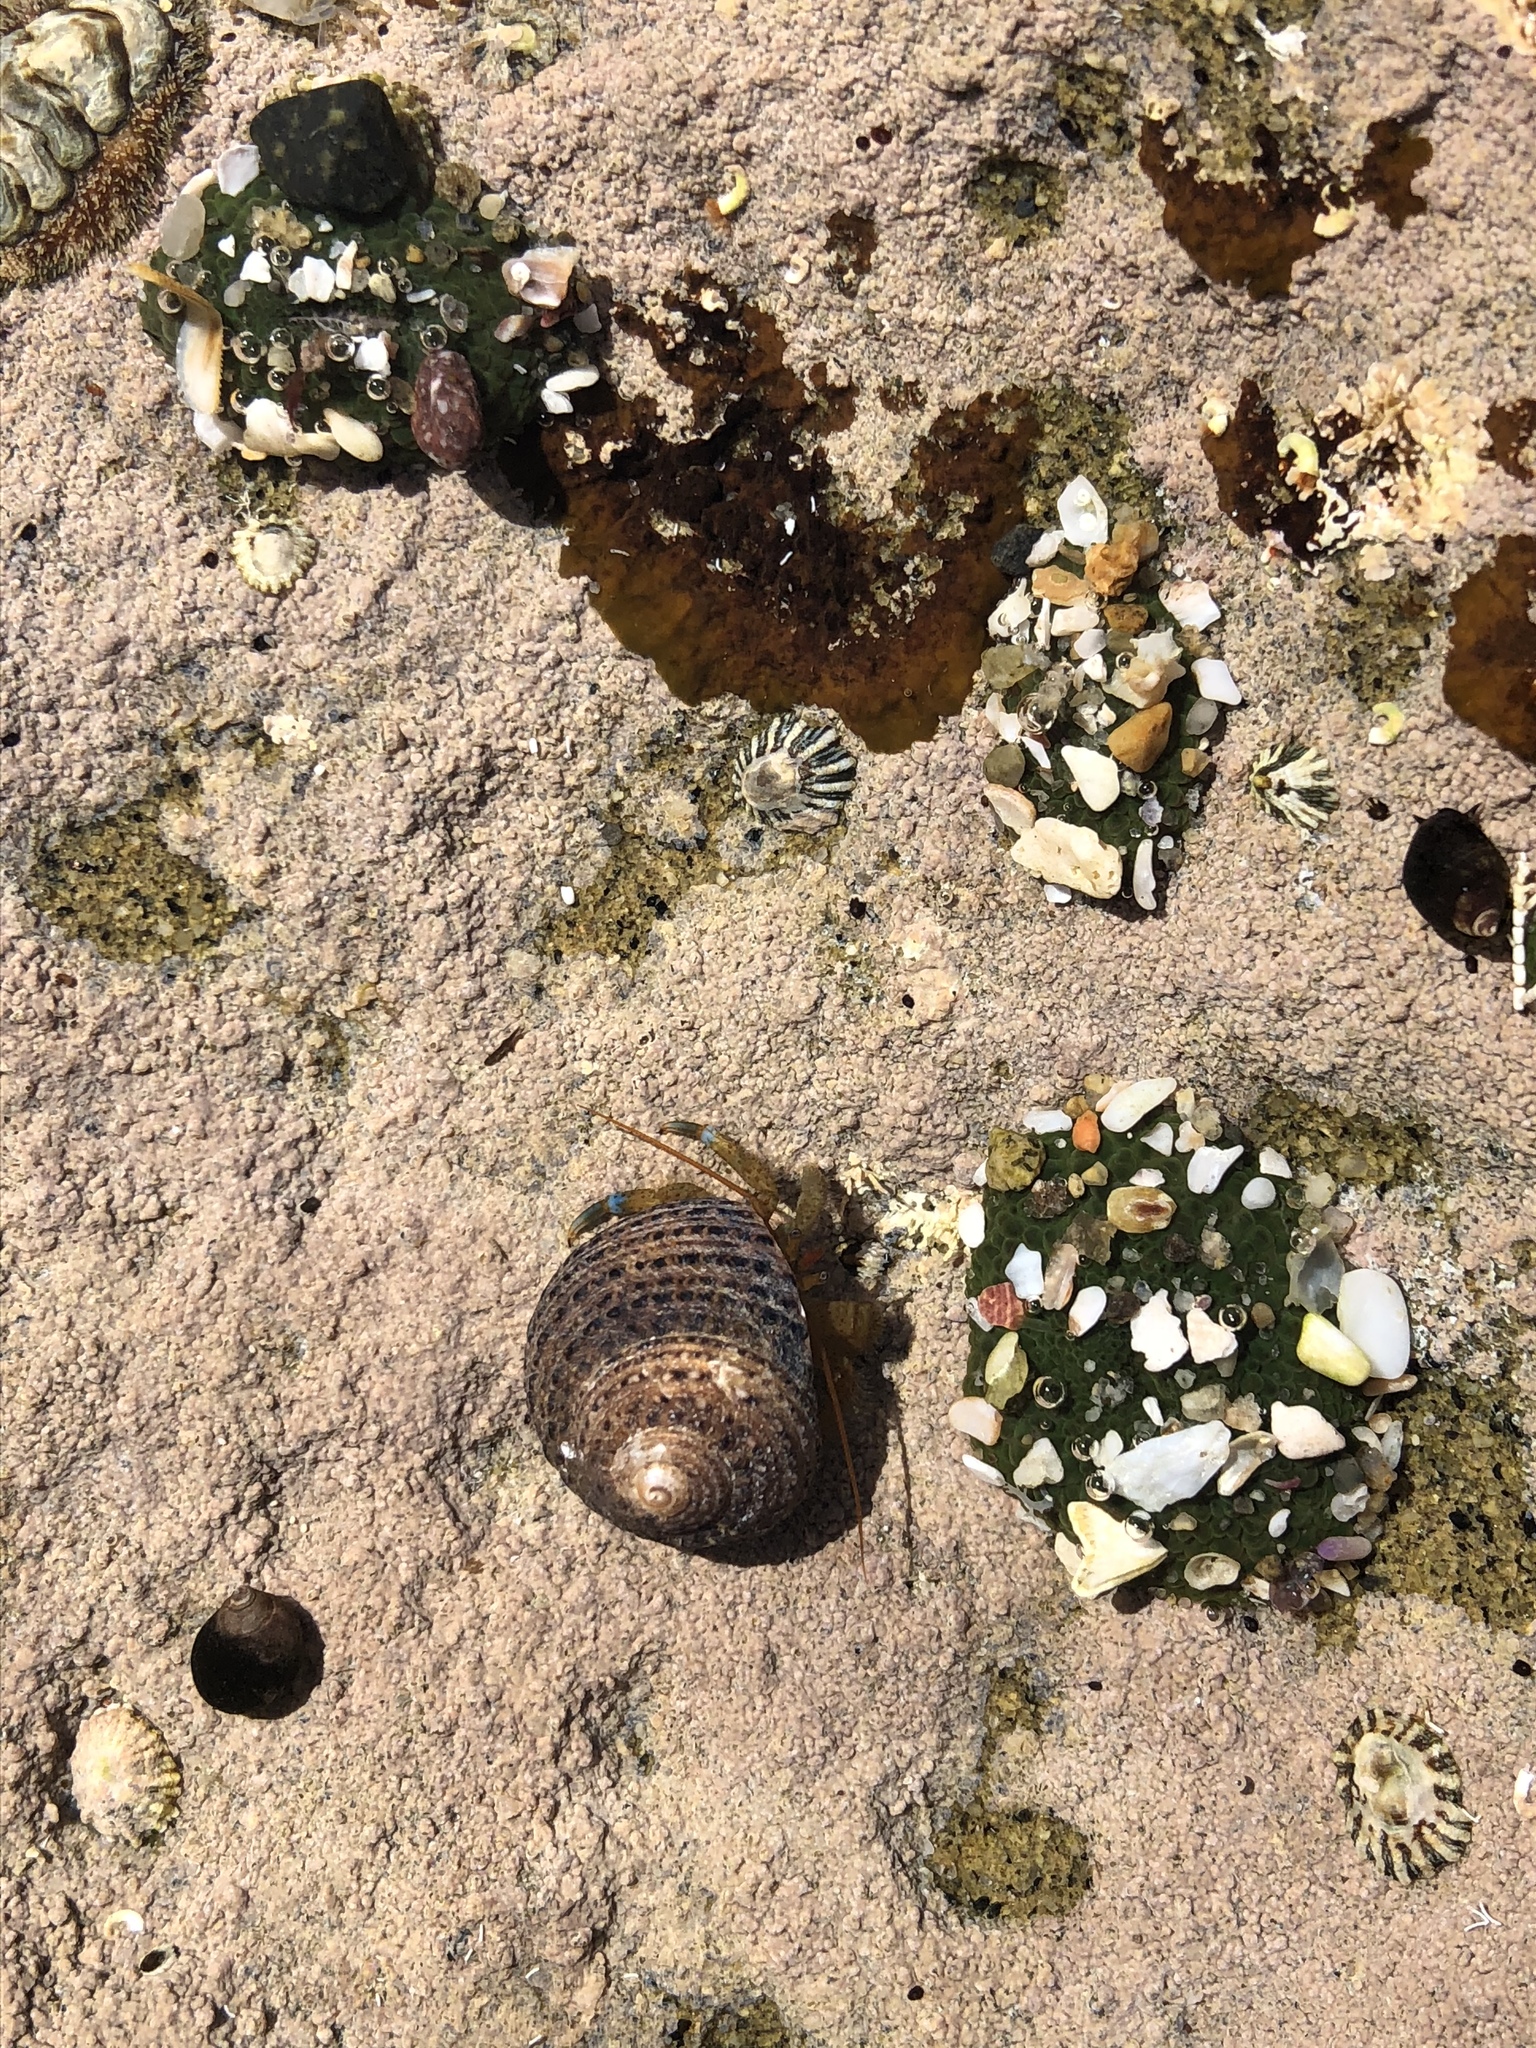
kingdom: Animalia
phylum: Arthropoda
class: Malacostraca
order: Decapoda
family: Paguridae
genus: Pagurus
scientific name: Pagurus samuelis
